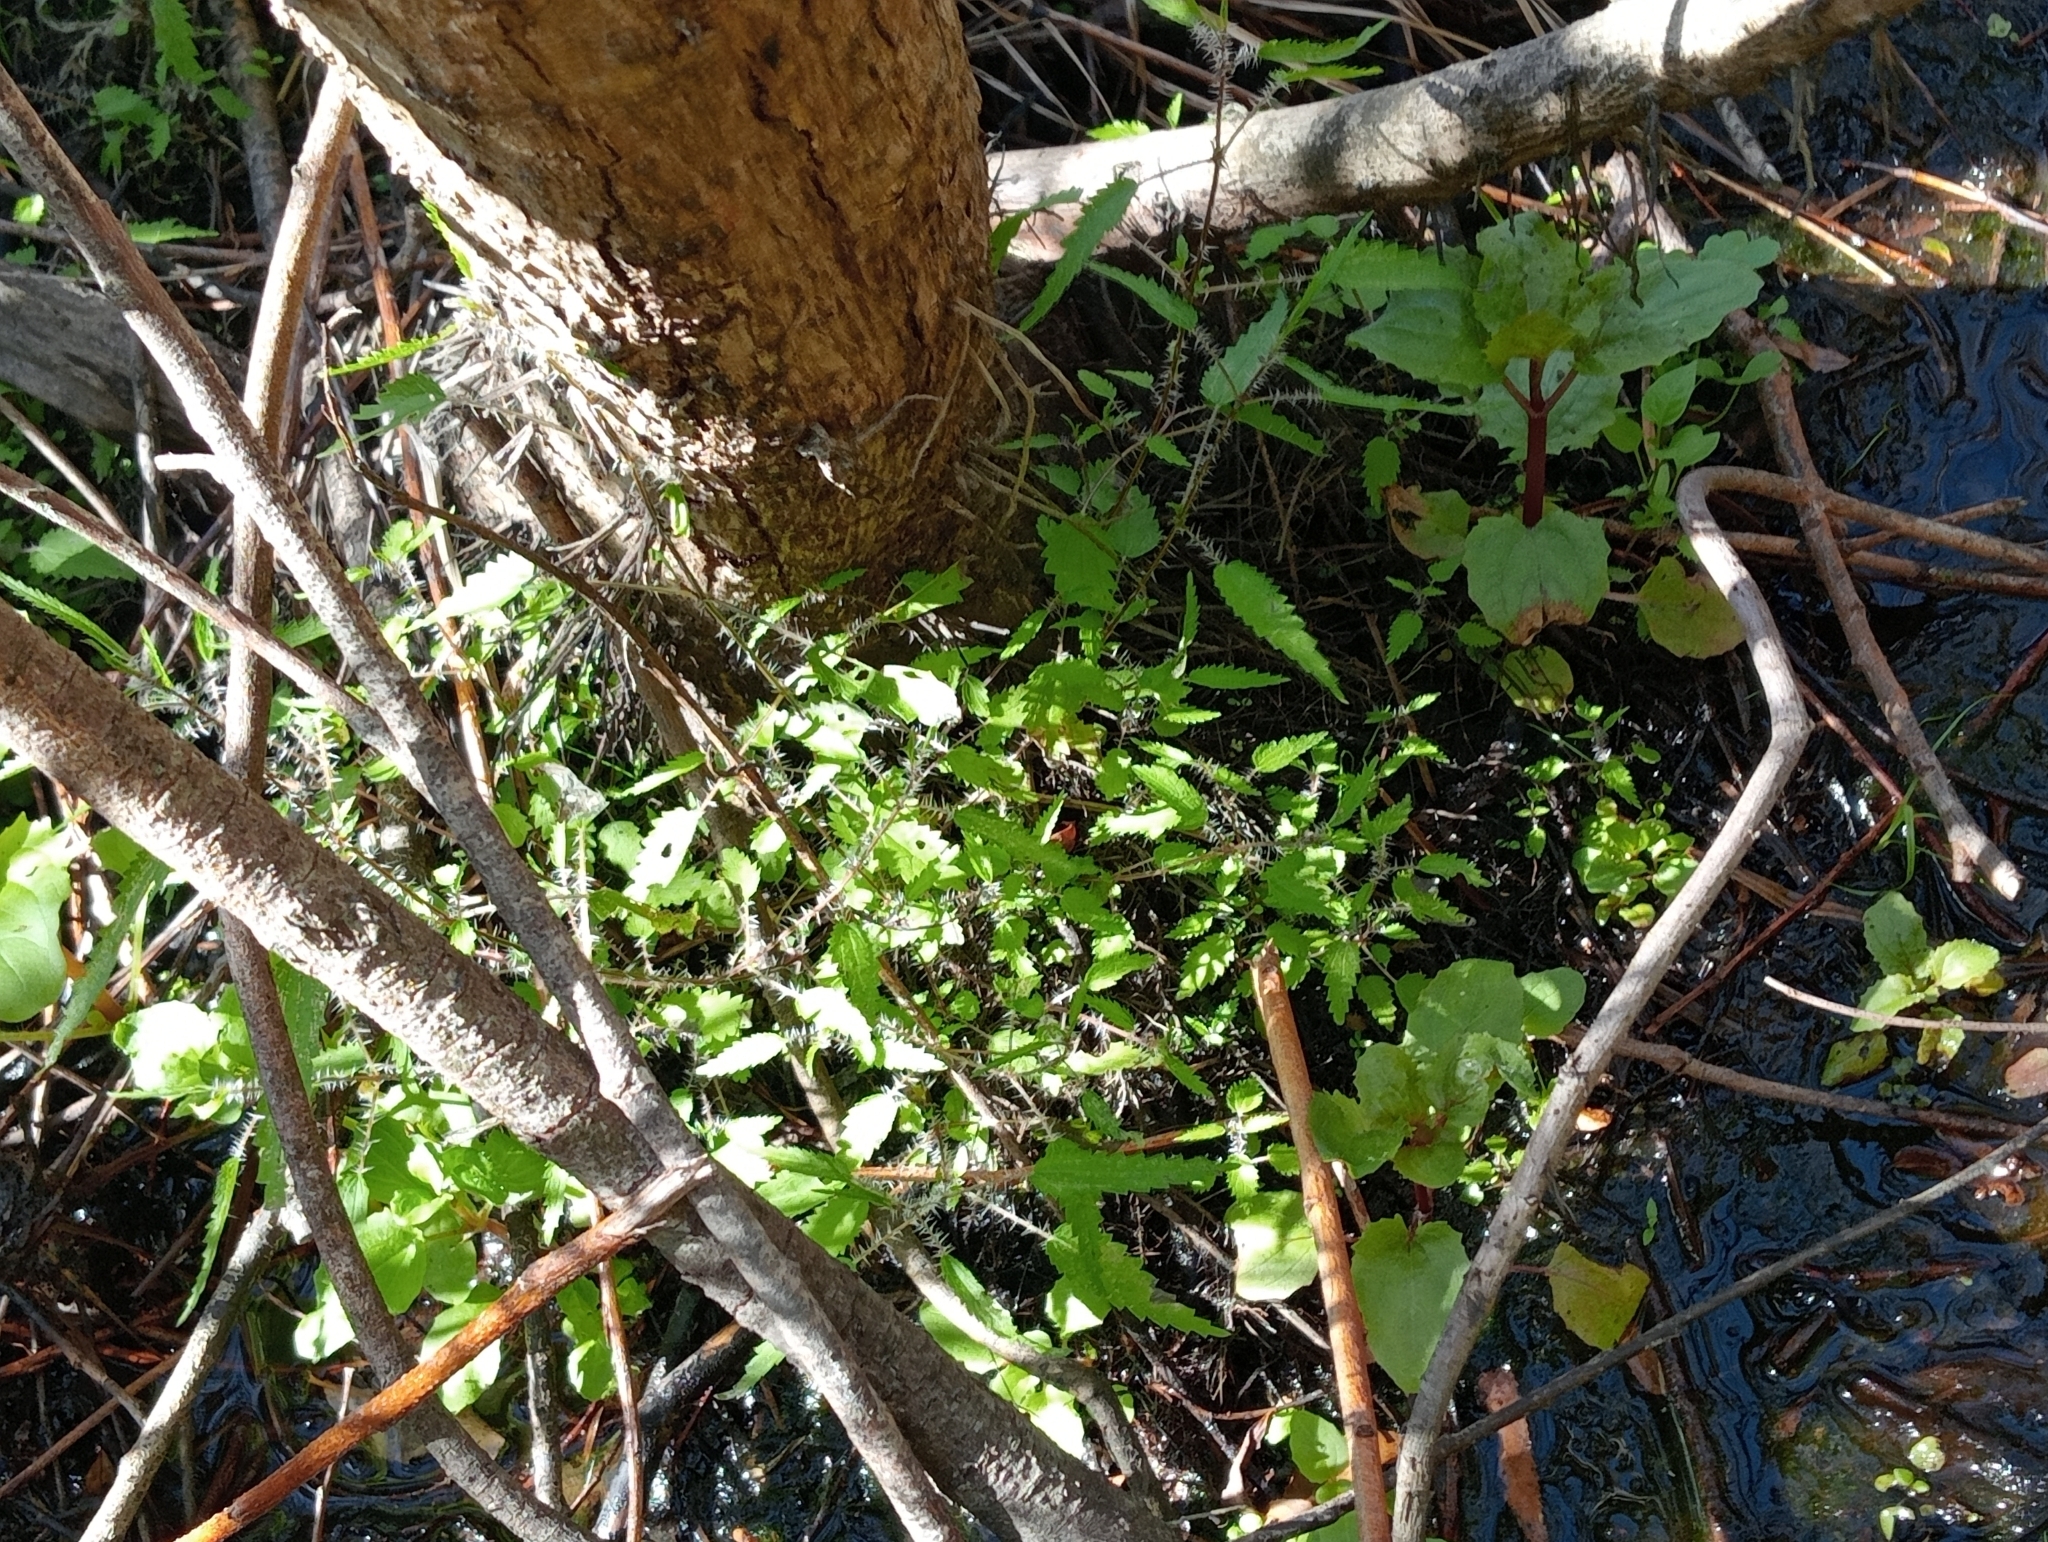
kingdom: Plantae
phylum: Tracheophyta
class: Magnoliopsida
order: Rosales
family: Urticaceae
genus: Urtica
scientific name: Urtica perconfusa
